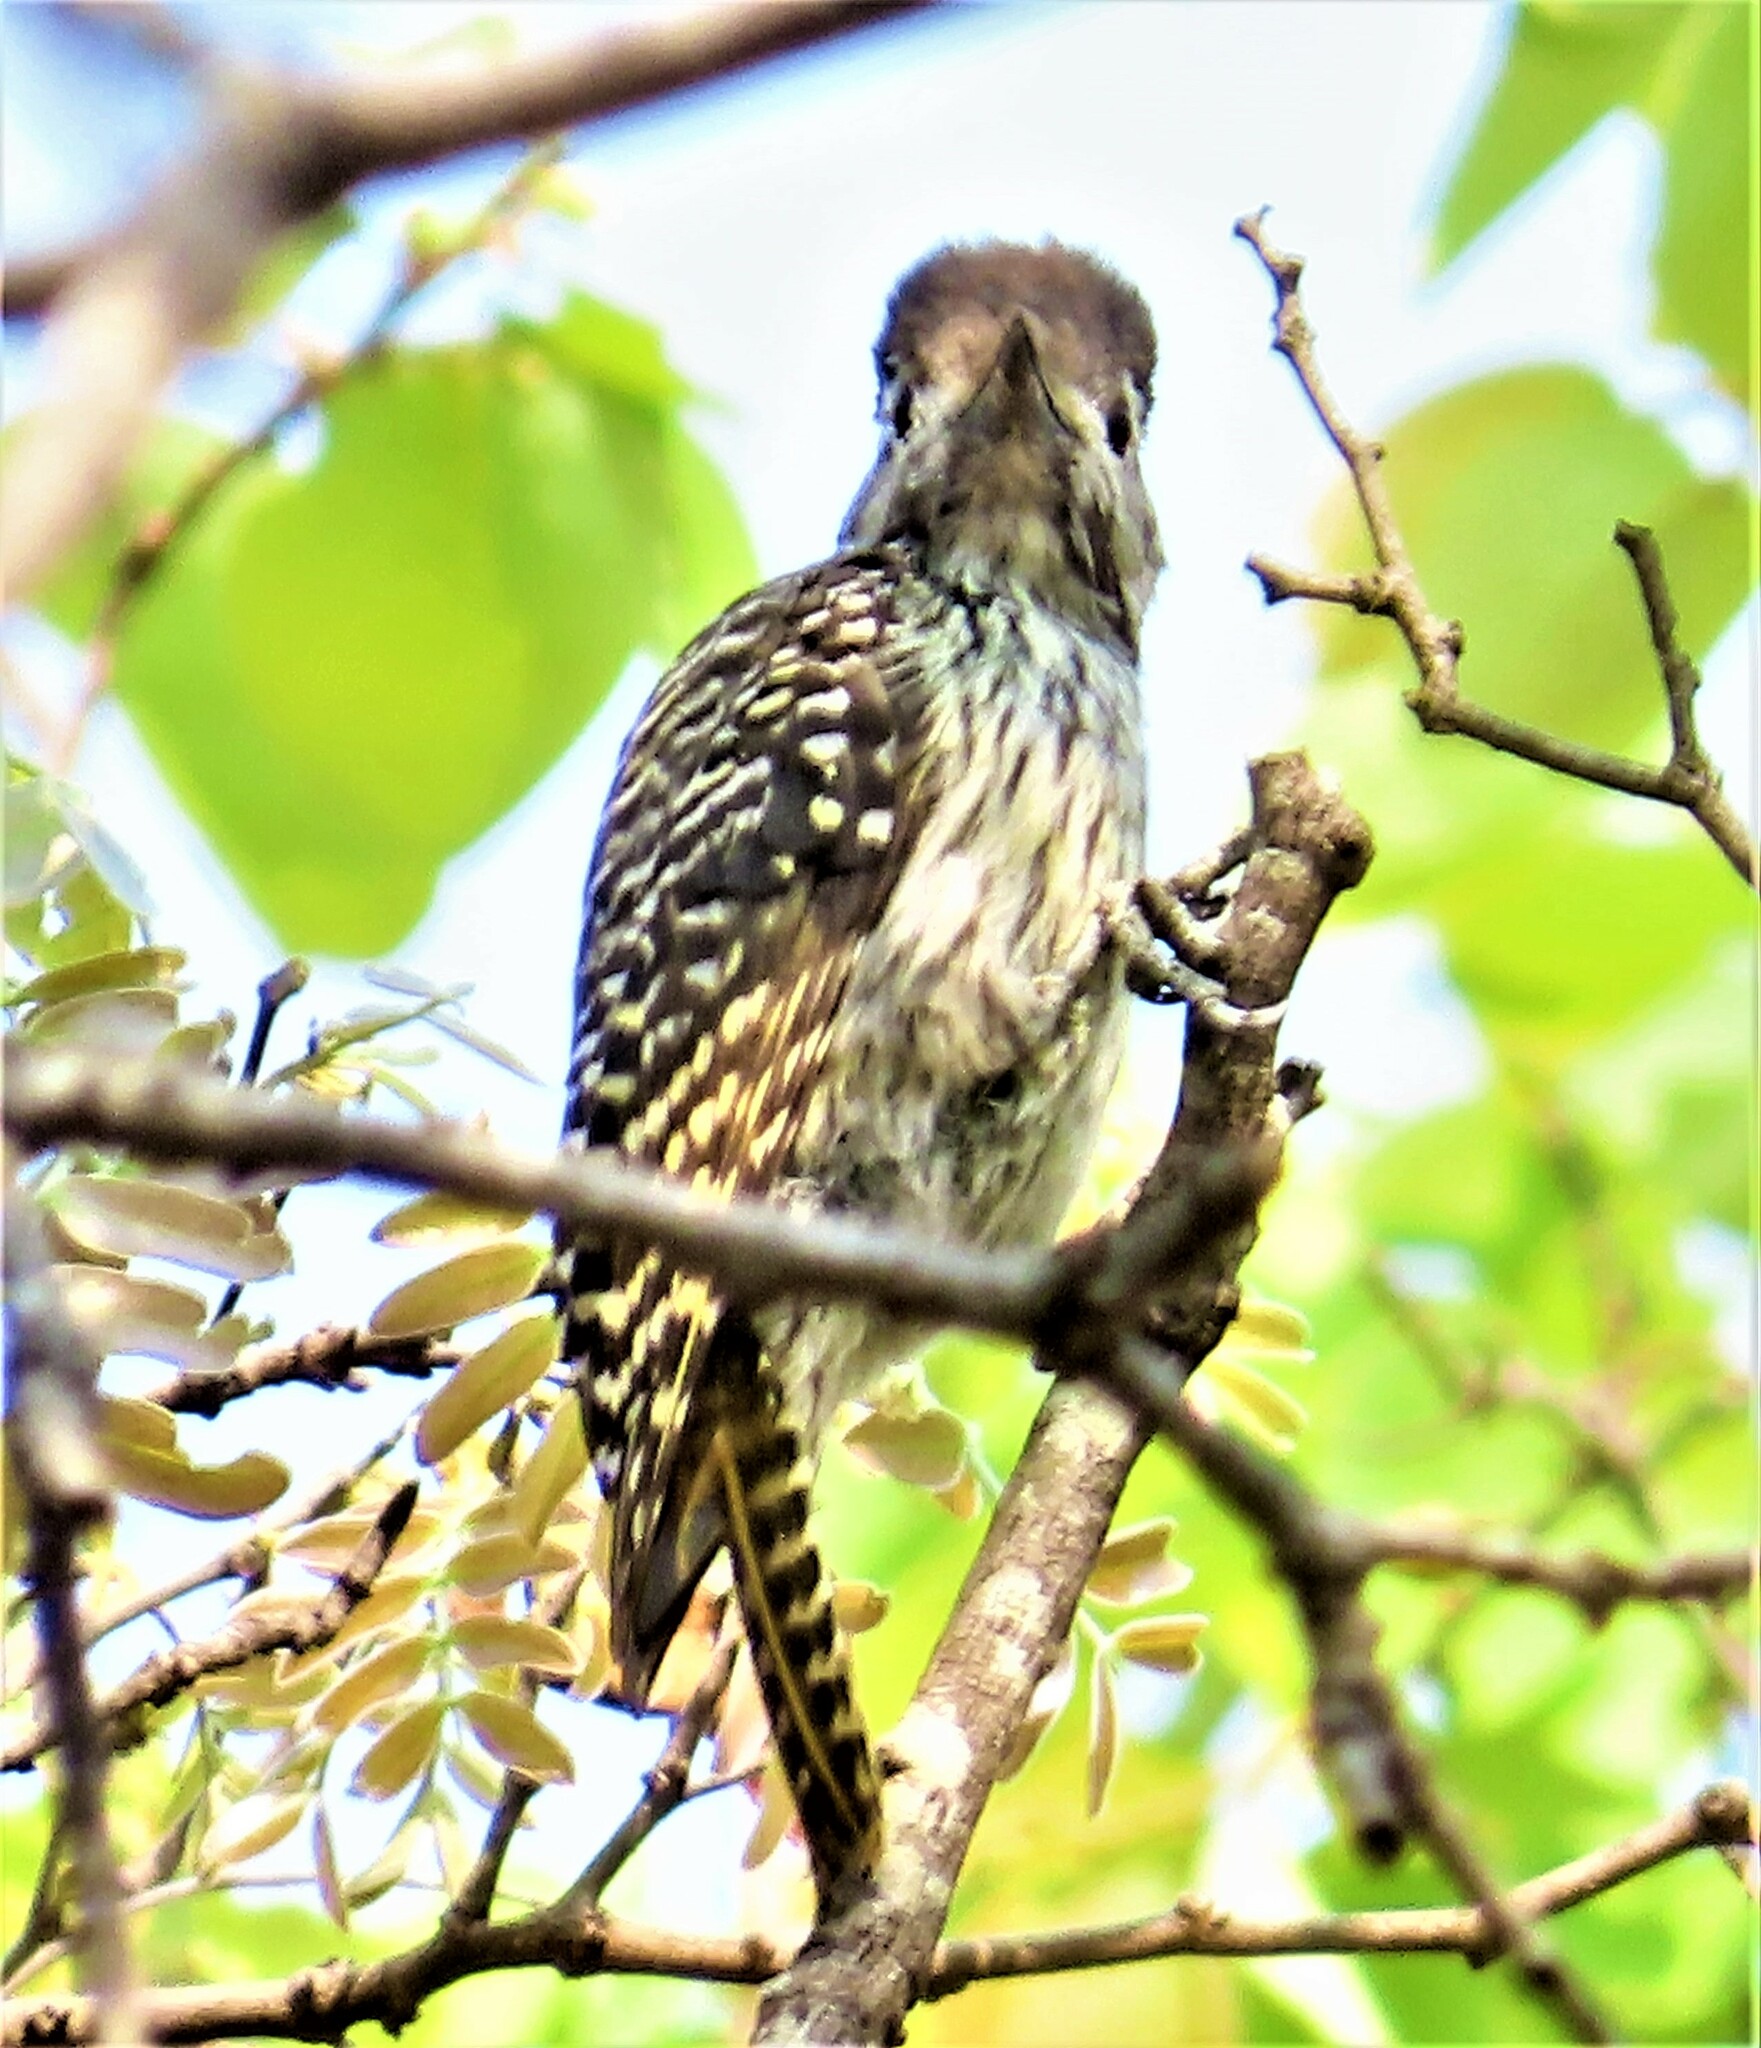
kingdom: Animalia
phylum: Chordata
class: Aves
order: Piciformes
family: Picidae
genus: Dendropicos
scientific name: Dendropicos fuscescens
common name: Cardinal woodpecker
